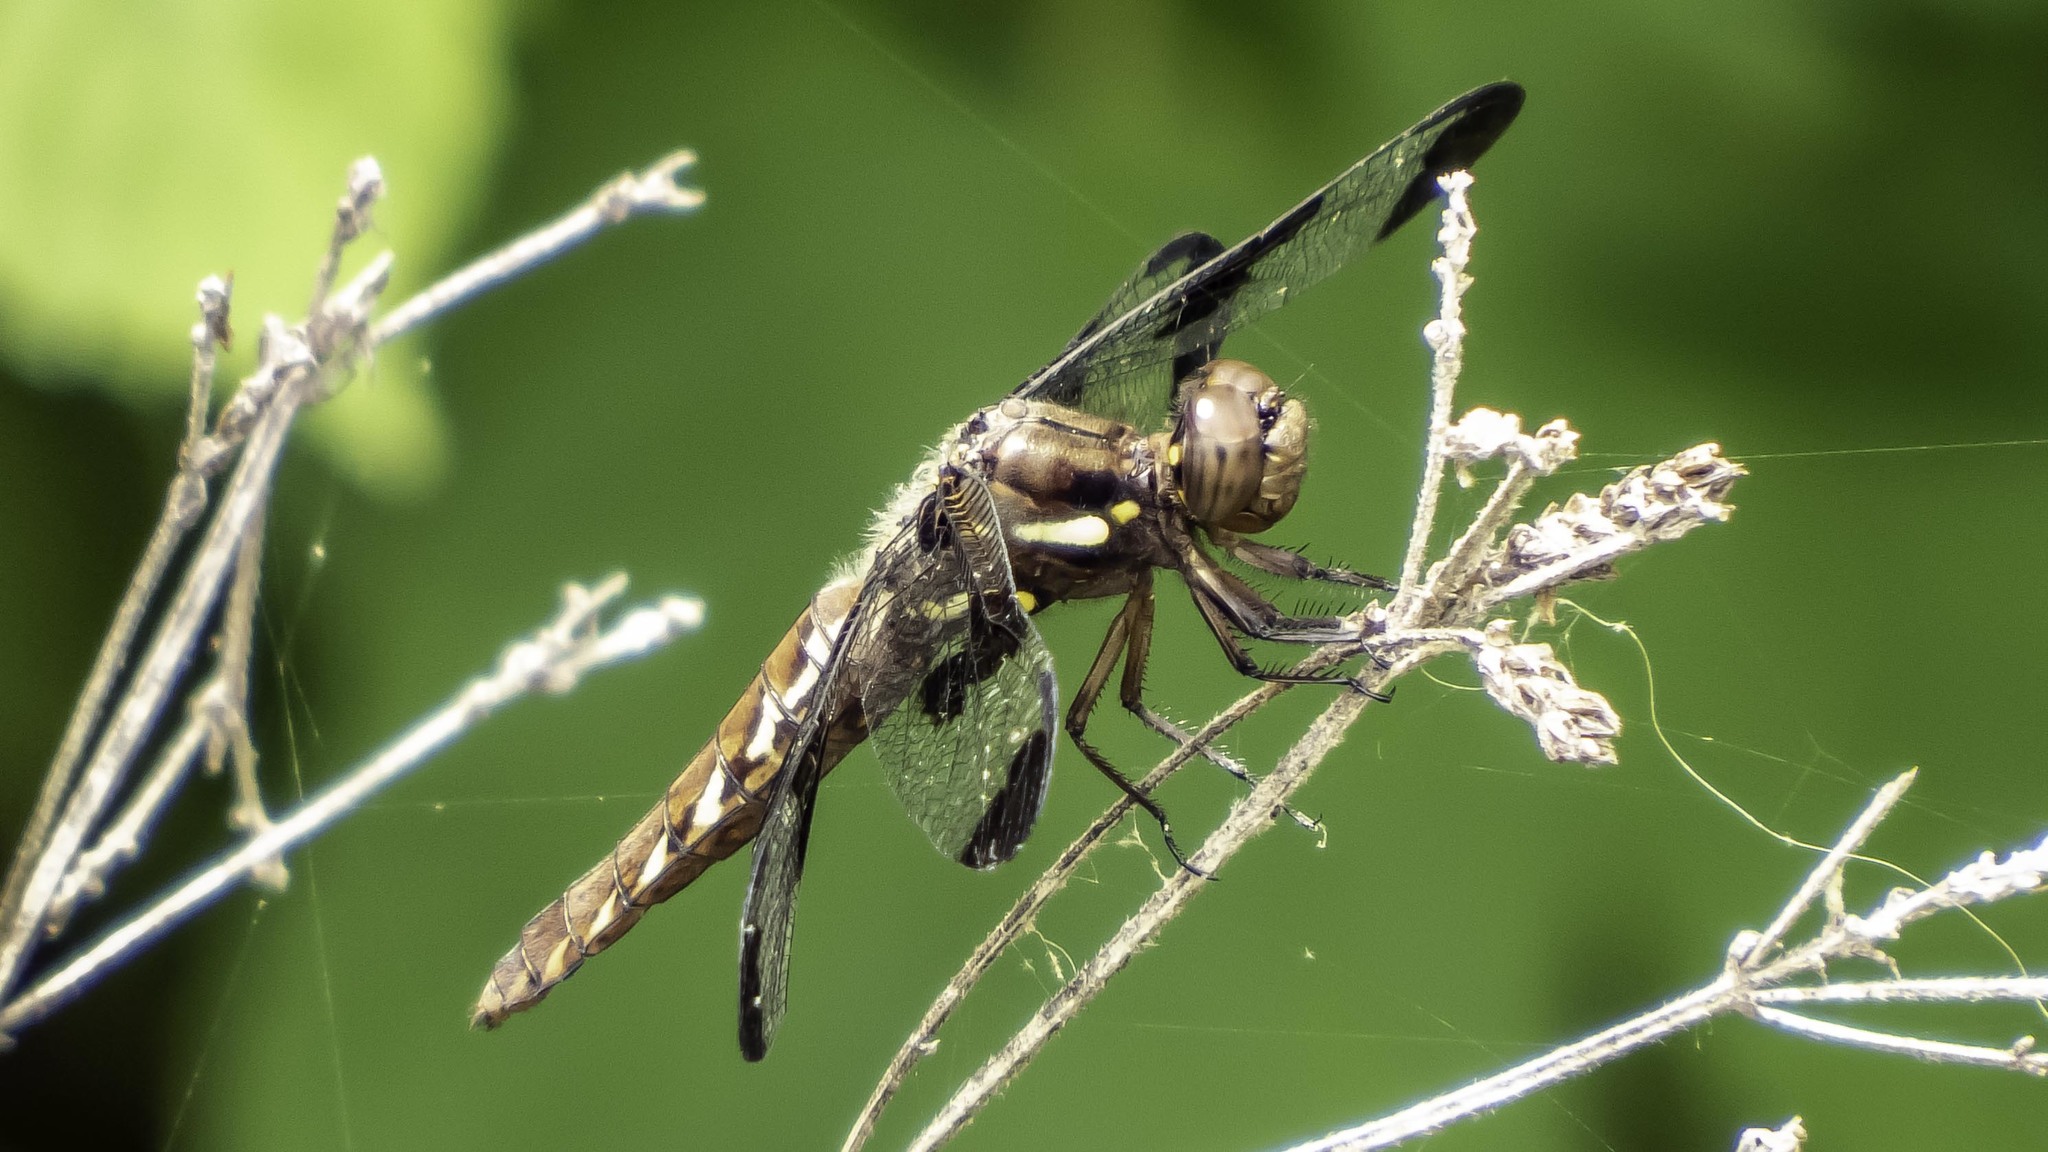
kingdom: Animalia
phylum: Arthropoda
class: Insecta
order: Odonata
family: Libellulidae
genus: Plathemis
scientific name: Plathemis lydia
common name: Common whitetail
